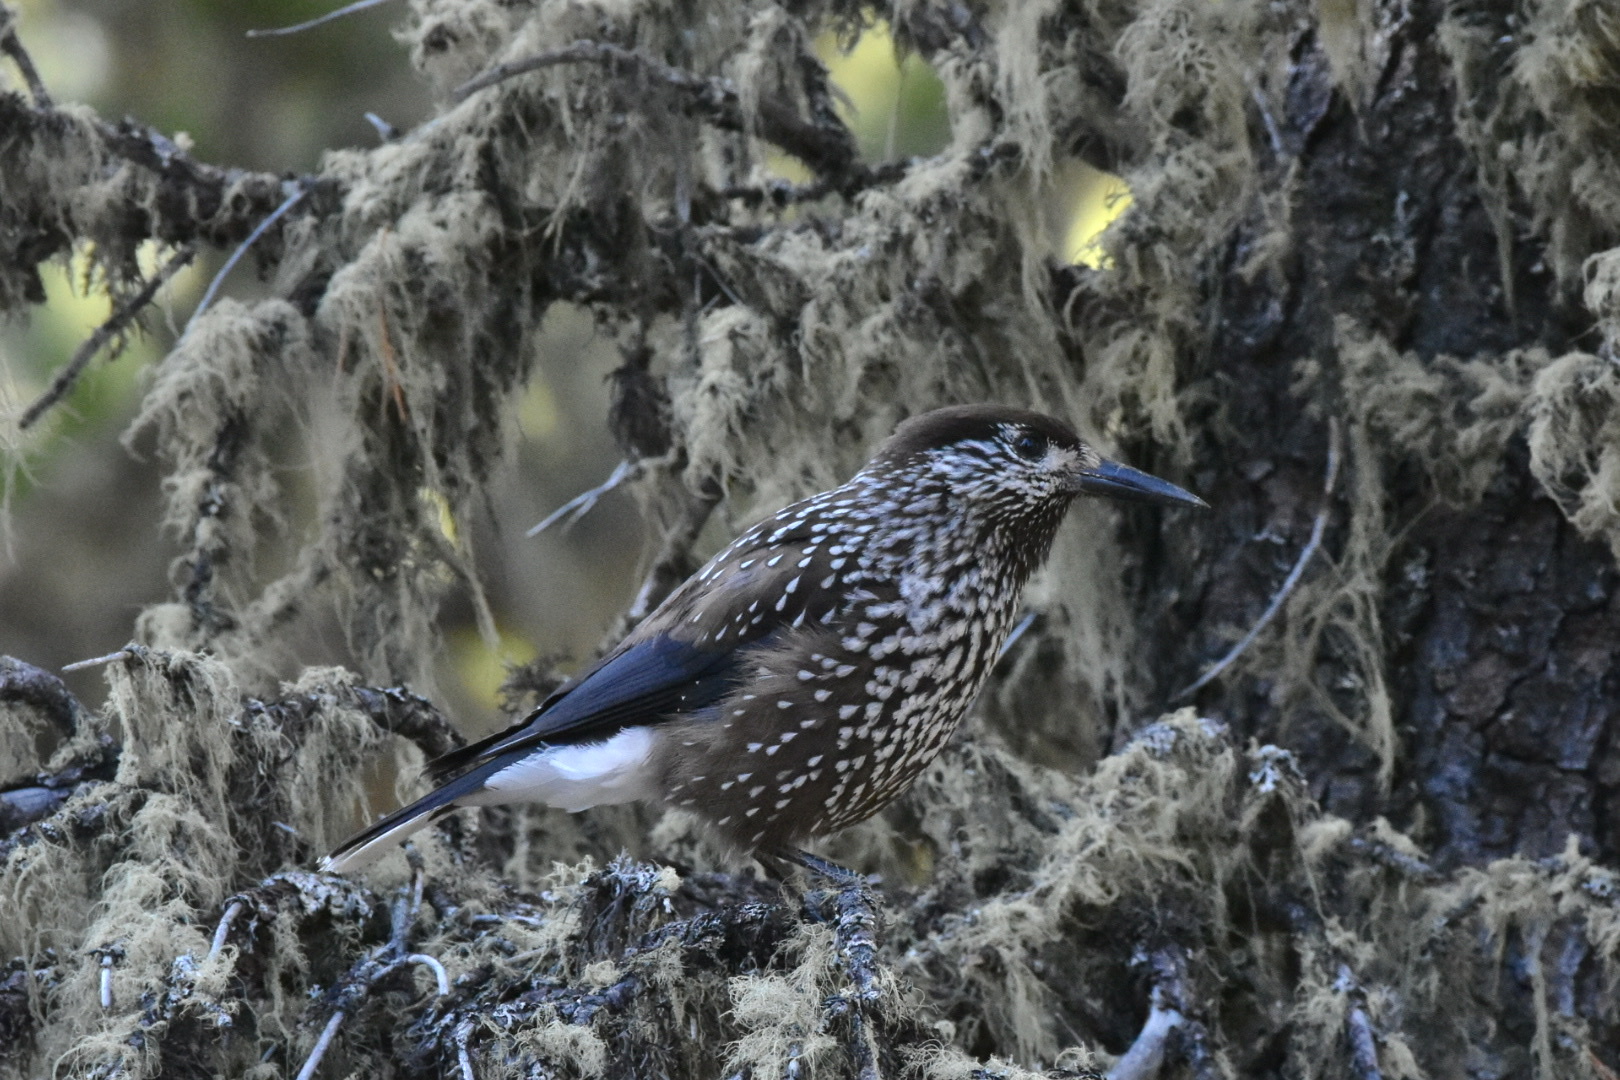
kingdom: Animalia
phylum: Chordata
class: Aves
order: Passeriformes
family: Corvidae
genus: Nucifraga
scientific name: Nucifraga caryocatactes
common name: Spotted nutcracker
